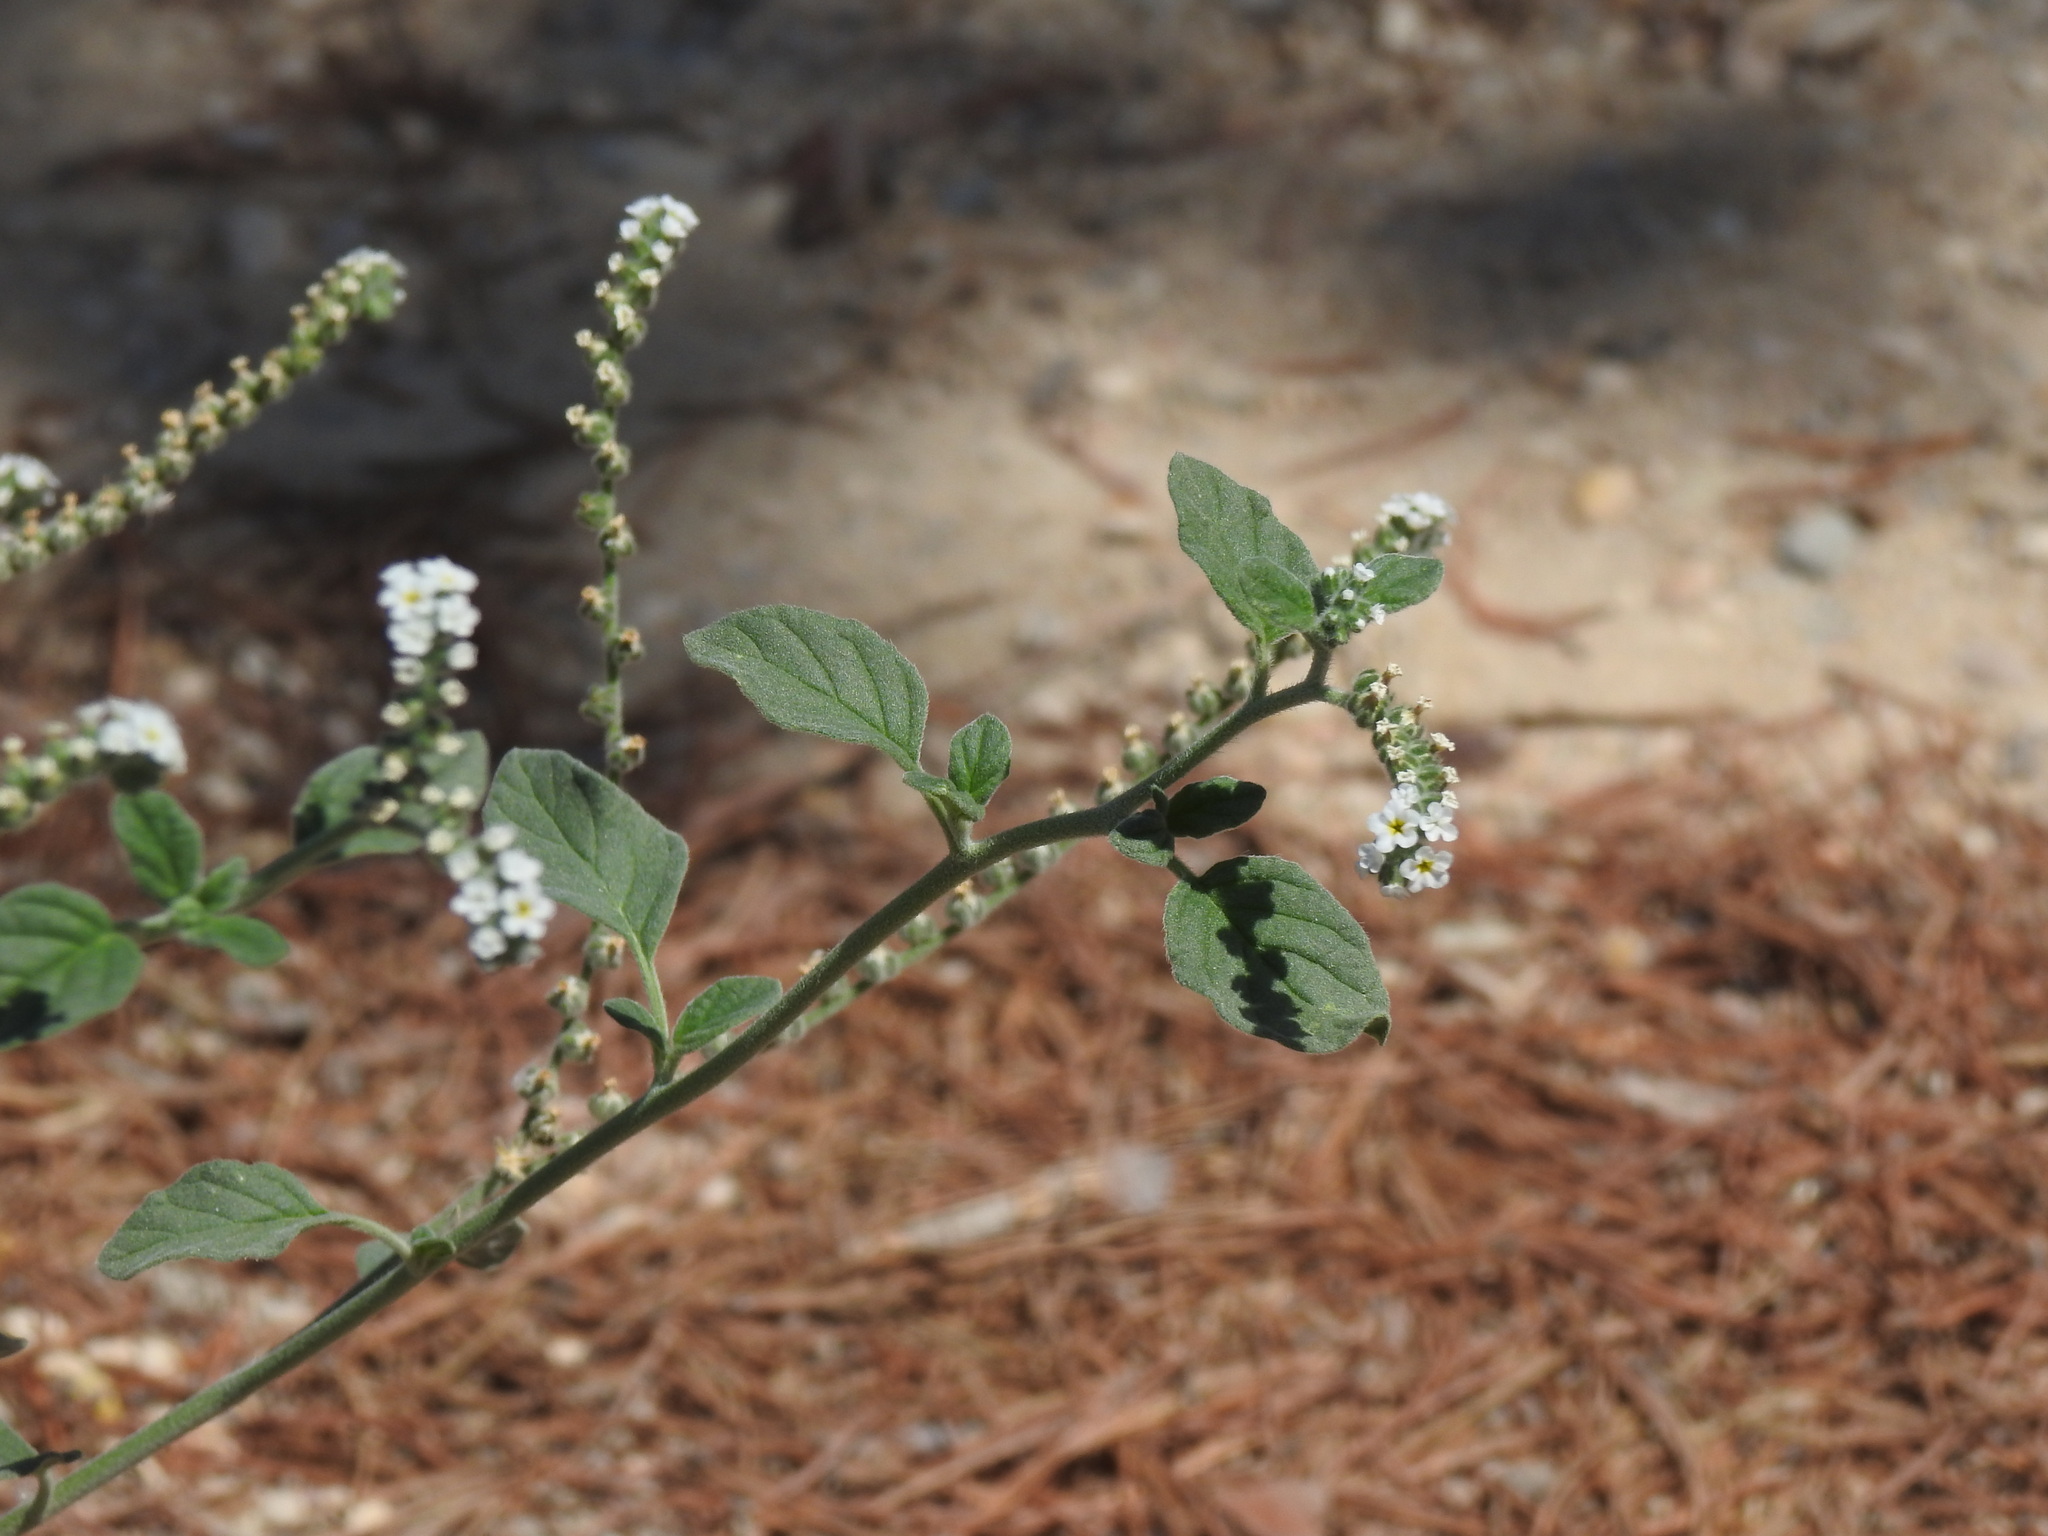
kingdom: Plantae
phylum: Tracheophyta
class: Magnoliopsida
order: Boraginales
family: Heliotropiaceae
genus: Heliotropium
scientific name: Heliotropium europaeum
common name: European heliotrope
